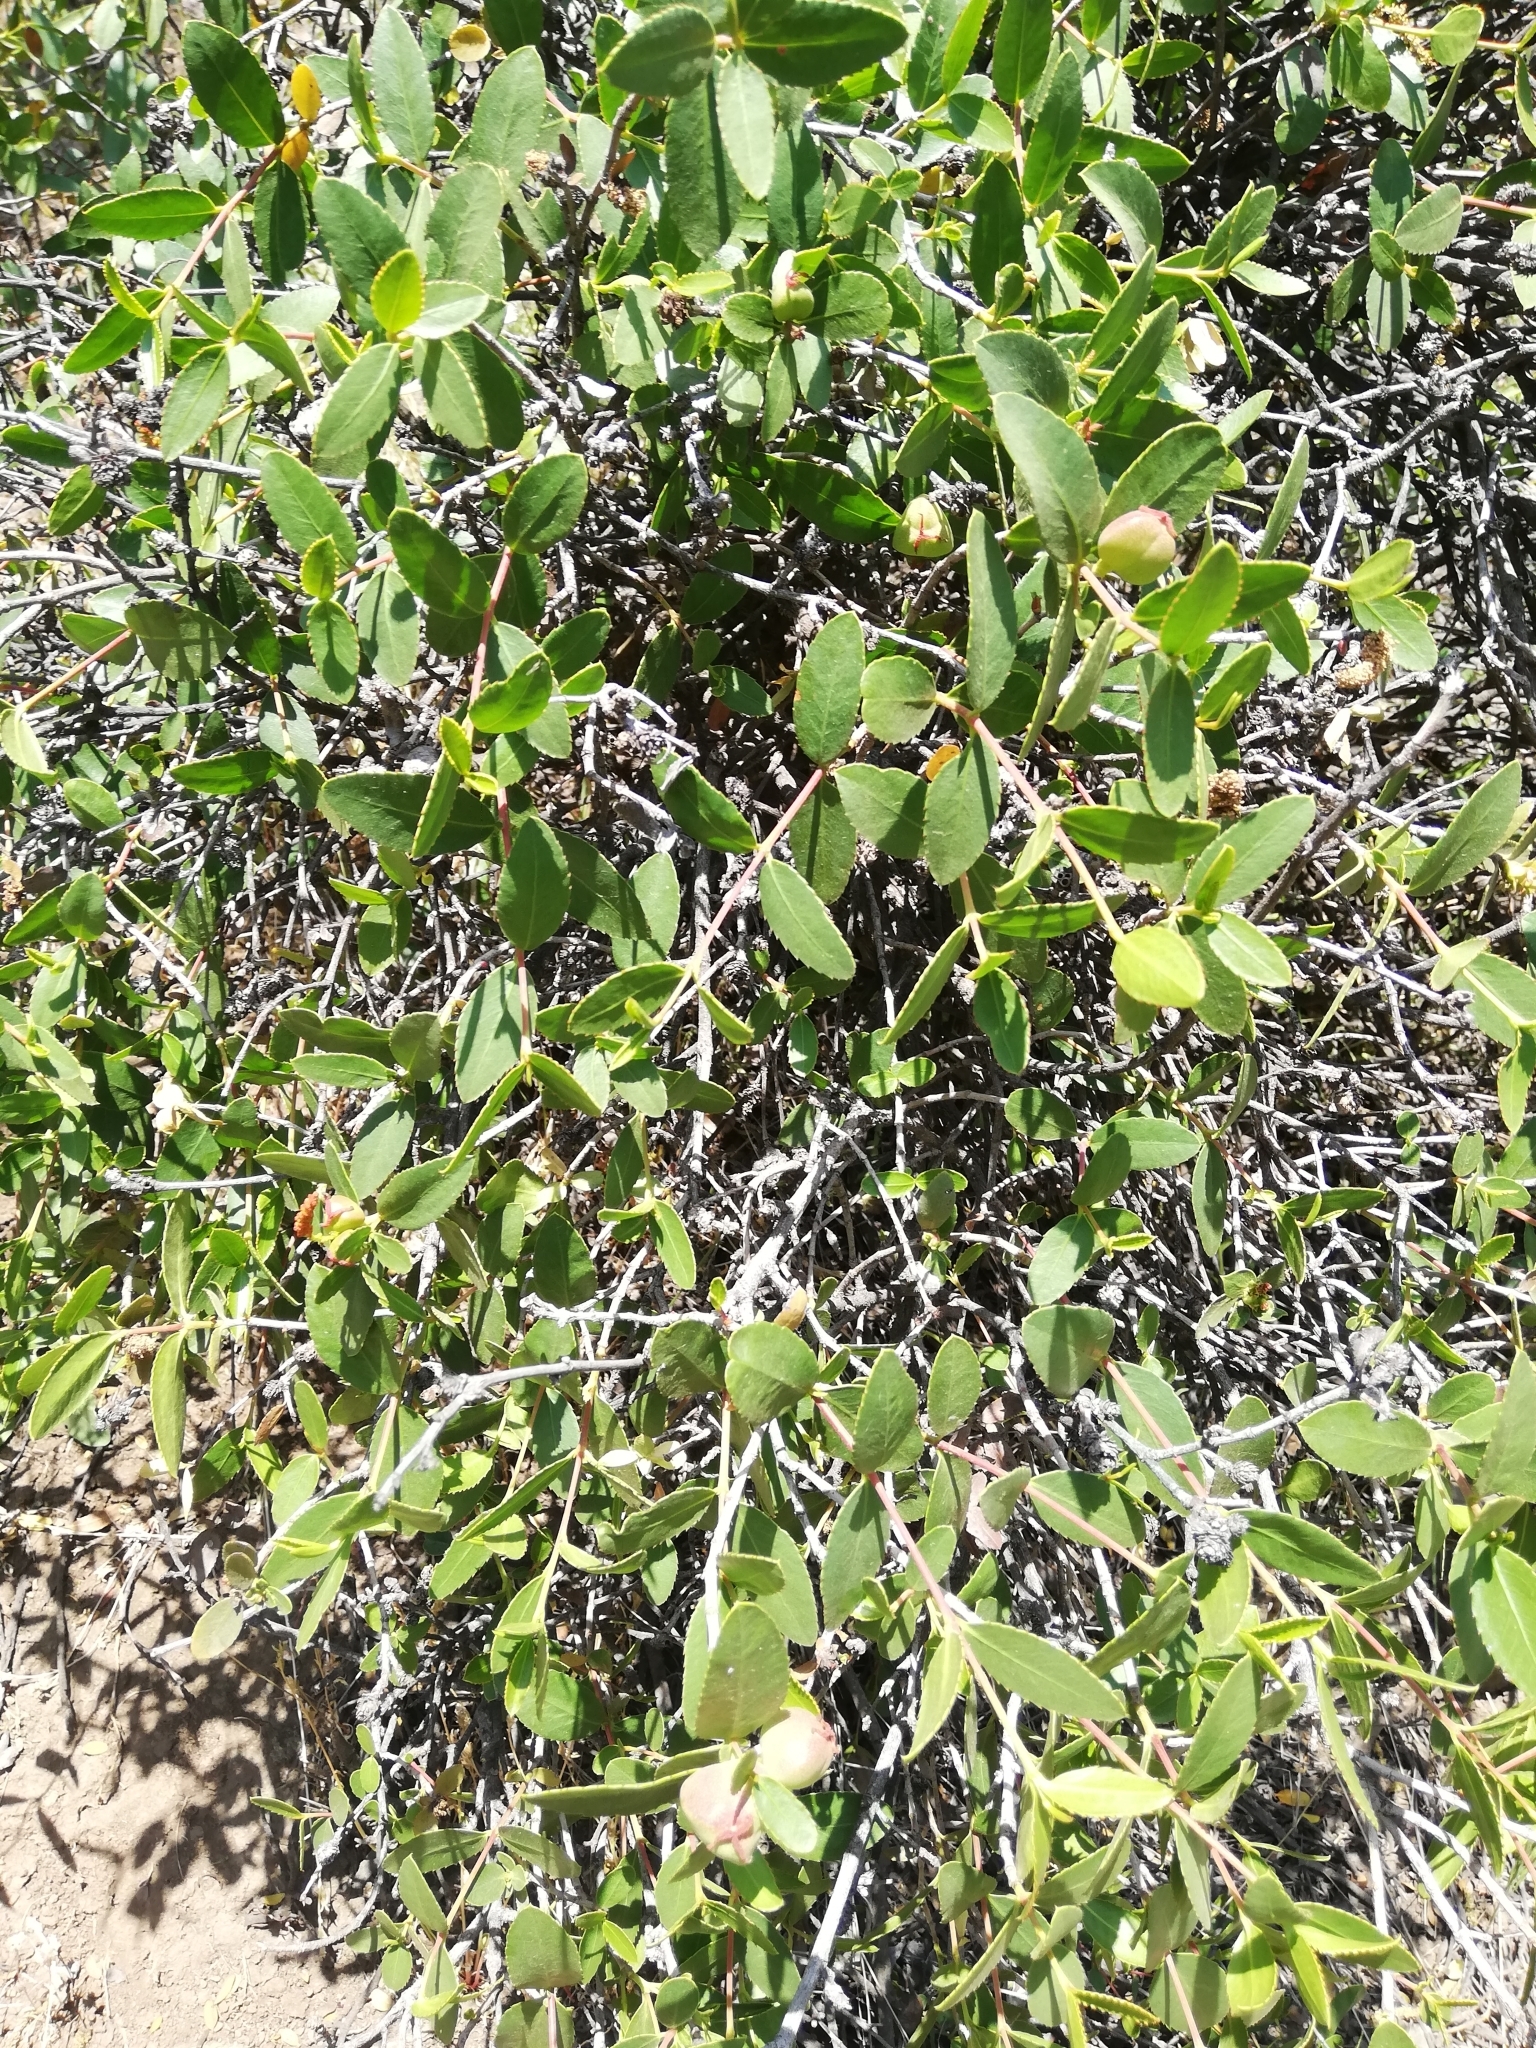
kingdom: Plantae
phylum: Tracheophyta
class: Magnoliopsida
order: Malpighiales
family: Euphorbiaceae
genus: Colliguaja
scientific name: Colliguaja odorifera
